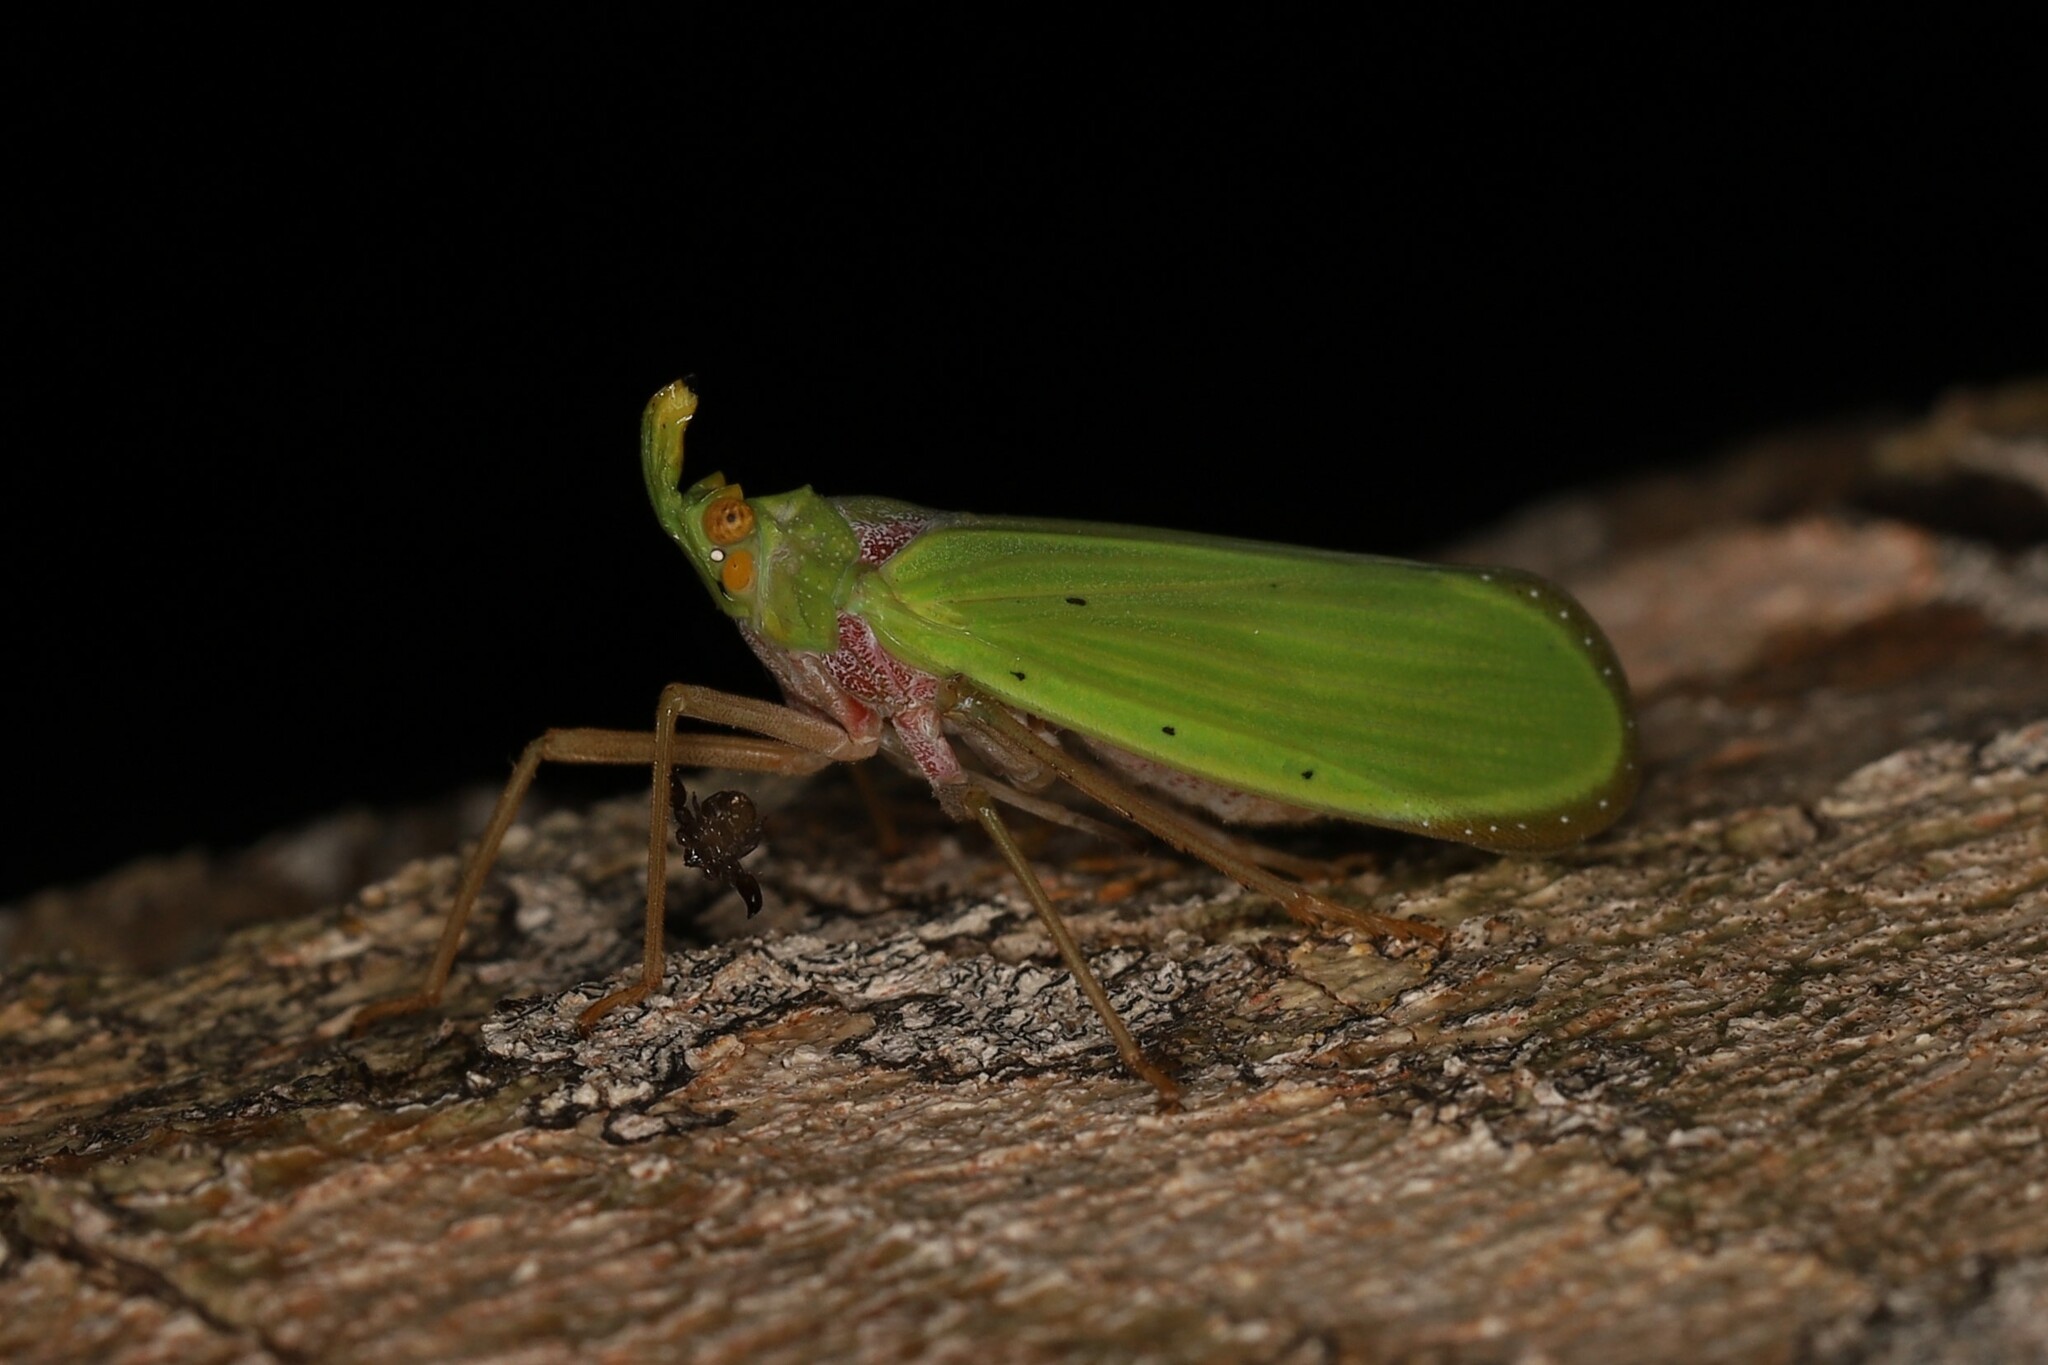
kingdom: Animalia
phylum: Arthropoda
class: Insecta
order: Hemiptera
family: Fulgoridae
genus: Enchophora
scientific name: Enchophora uniformis
